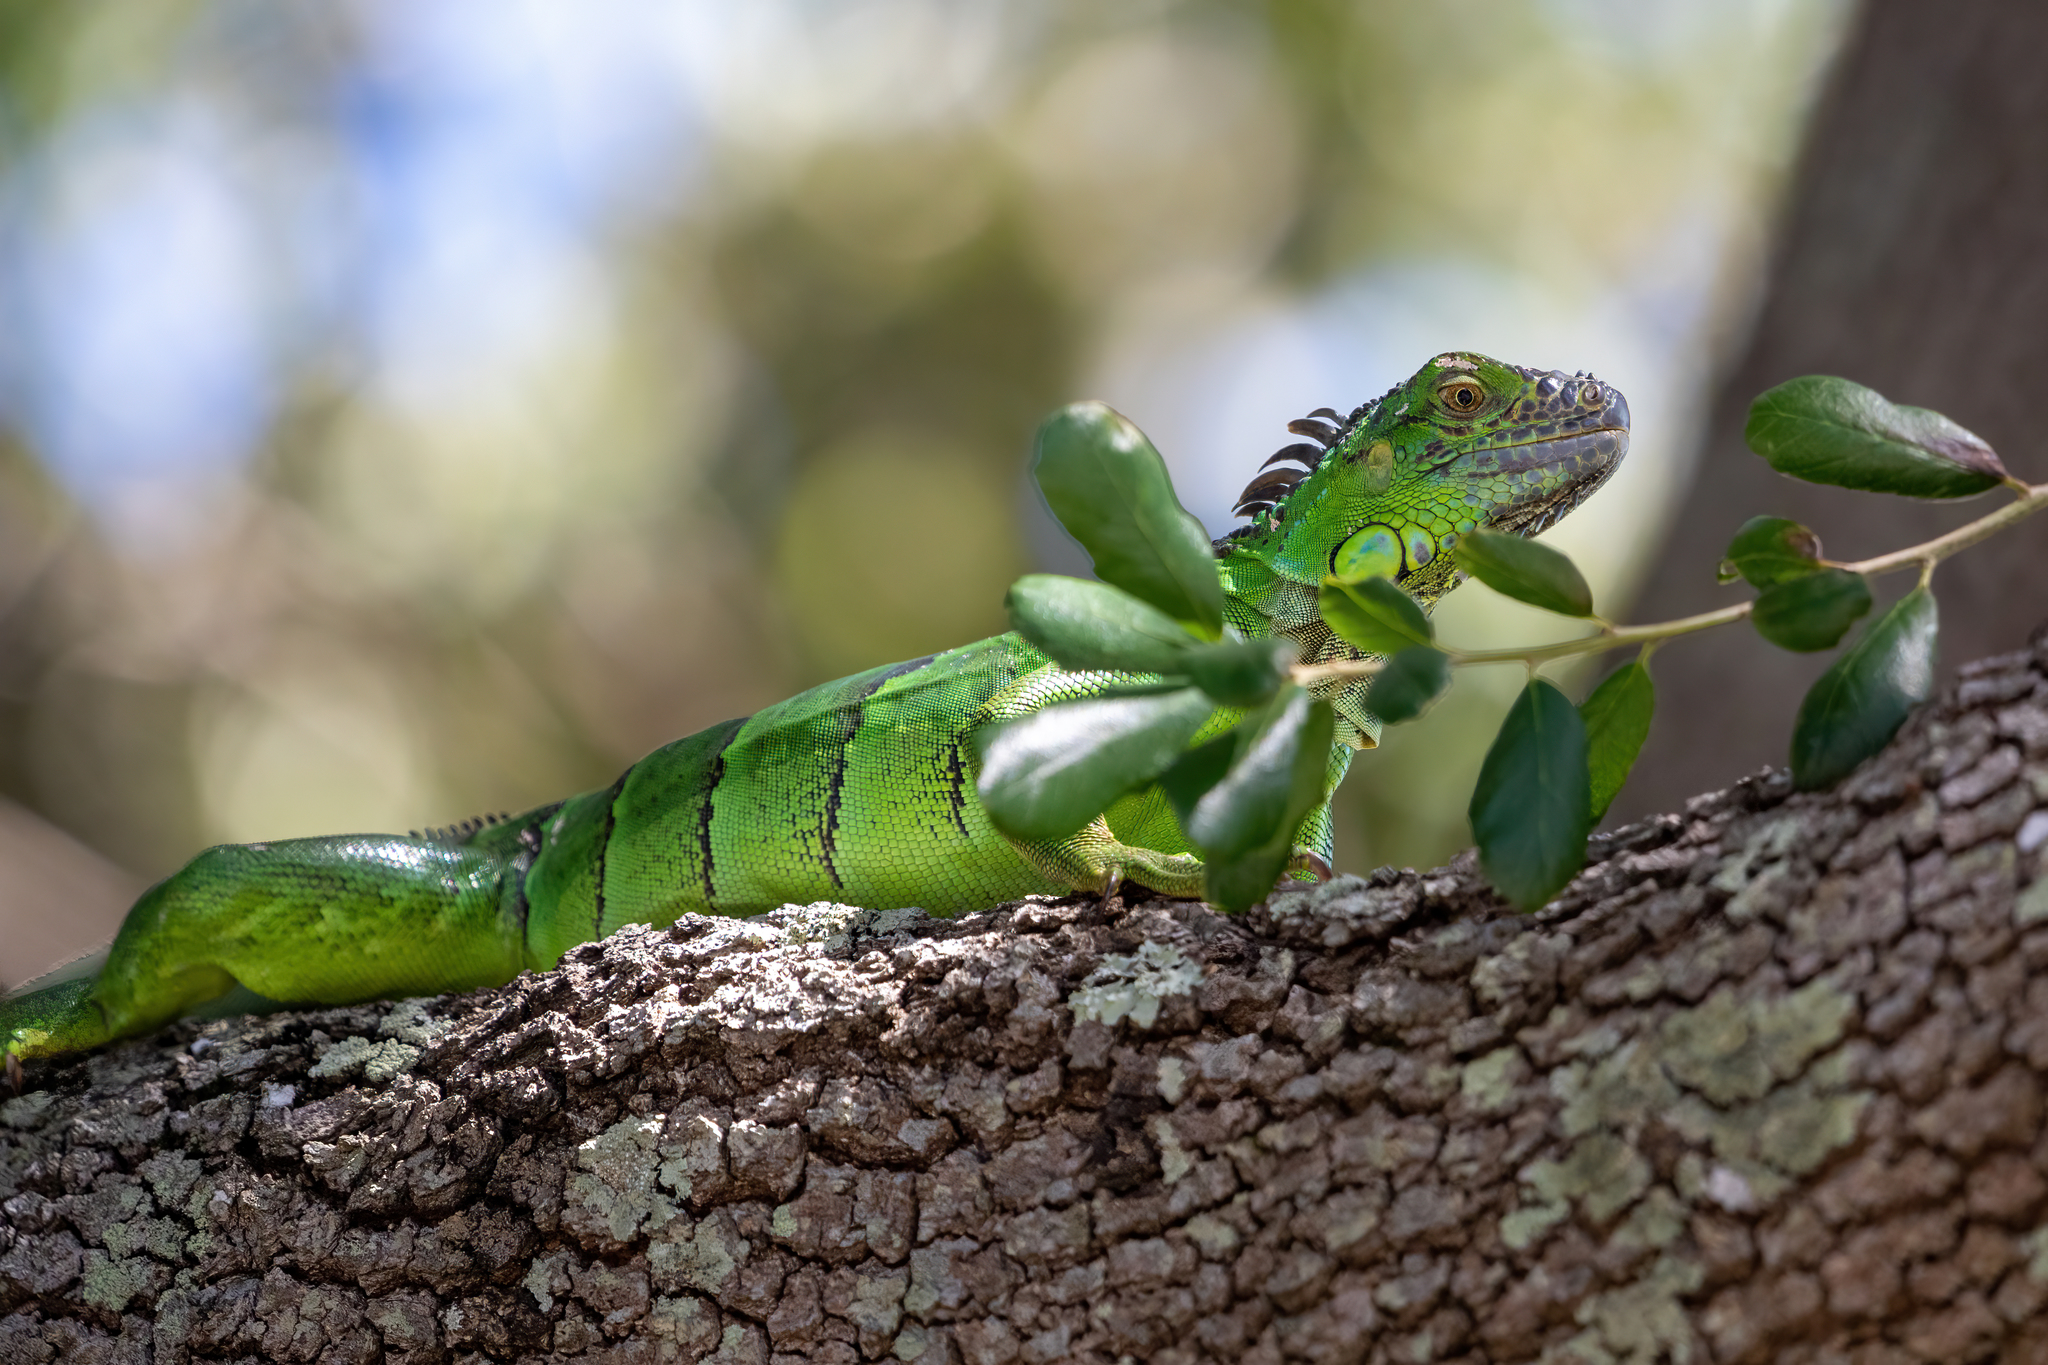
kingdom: Animalia
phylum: Chordata
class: Squamata
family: Iguanidae
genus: Iguana
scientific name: Iguana iguana
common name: Green iguana
